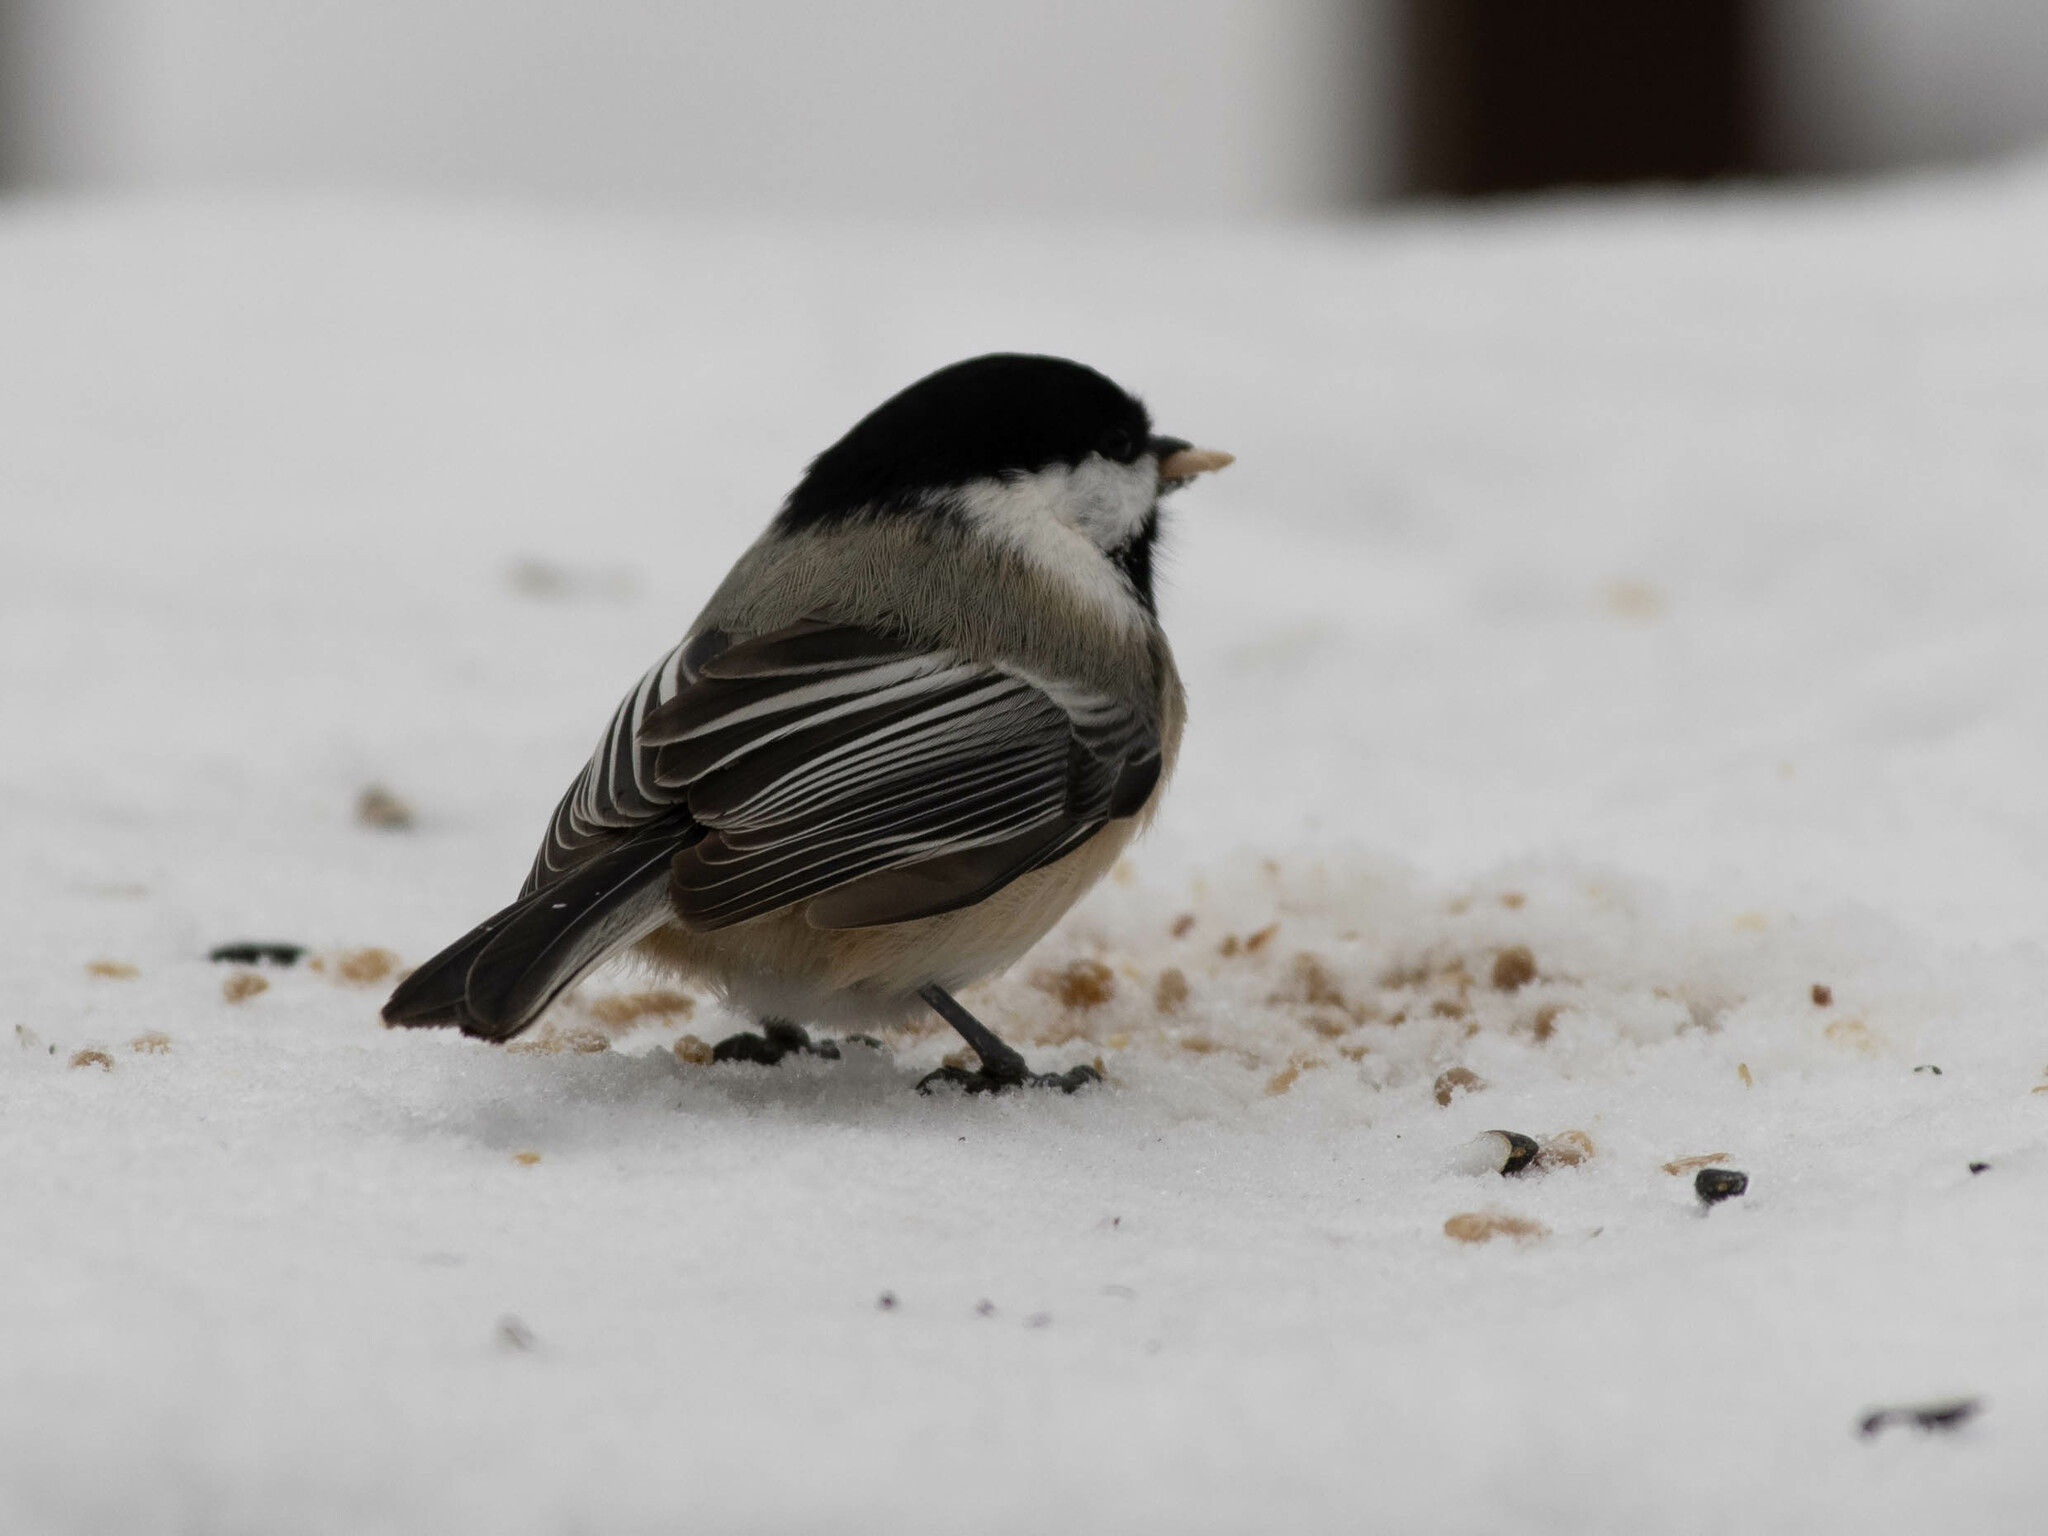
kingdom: Animalia
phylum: Chordata
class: Aves
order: Passeriformes
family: Paridae
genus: Poecile
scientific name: Poecile atricapillus
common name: Black-capped chickadee
